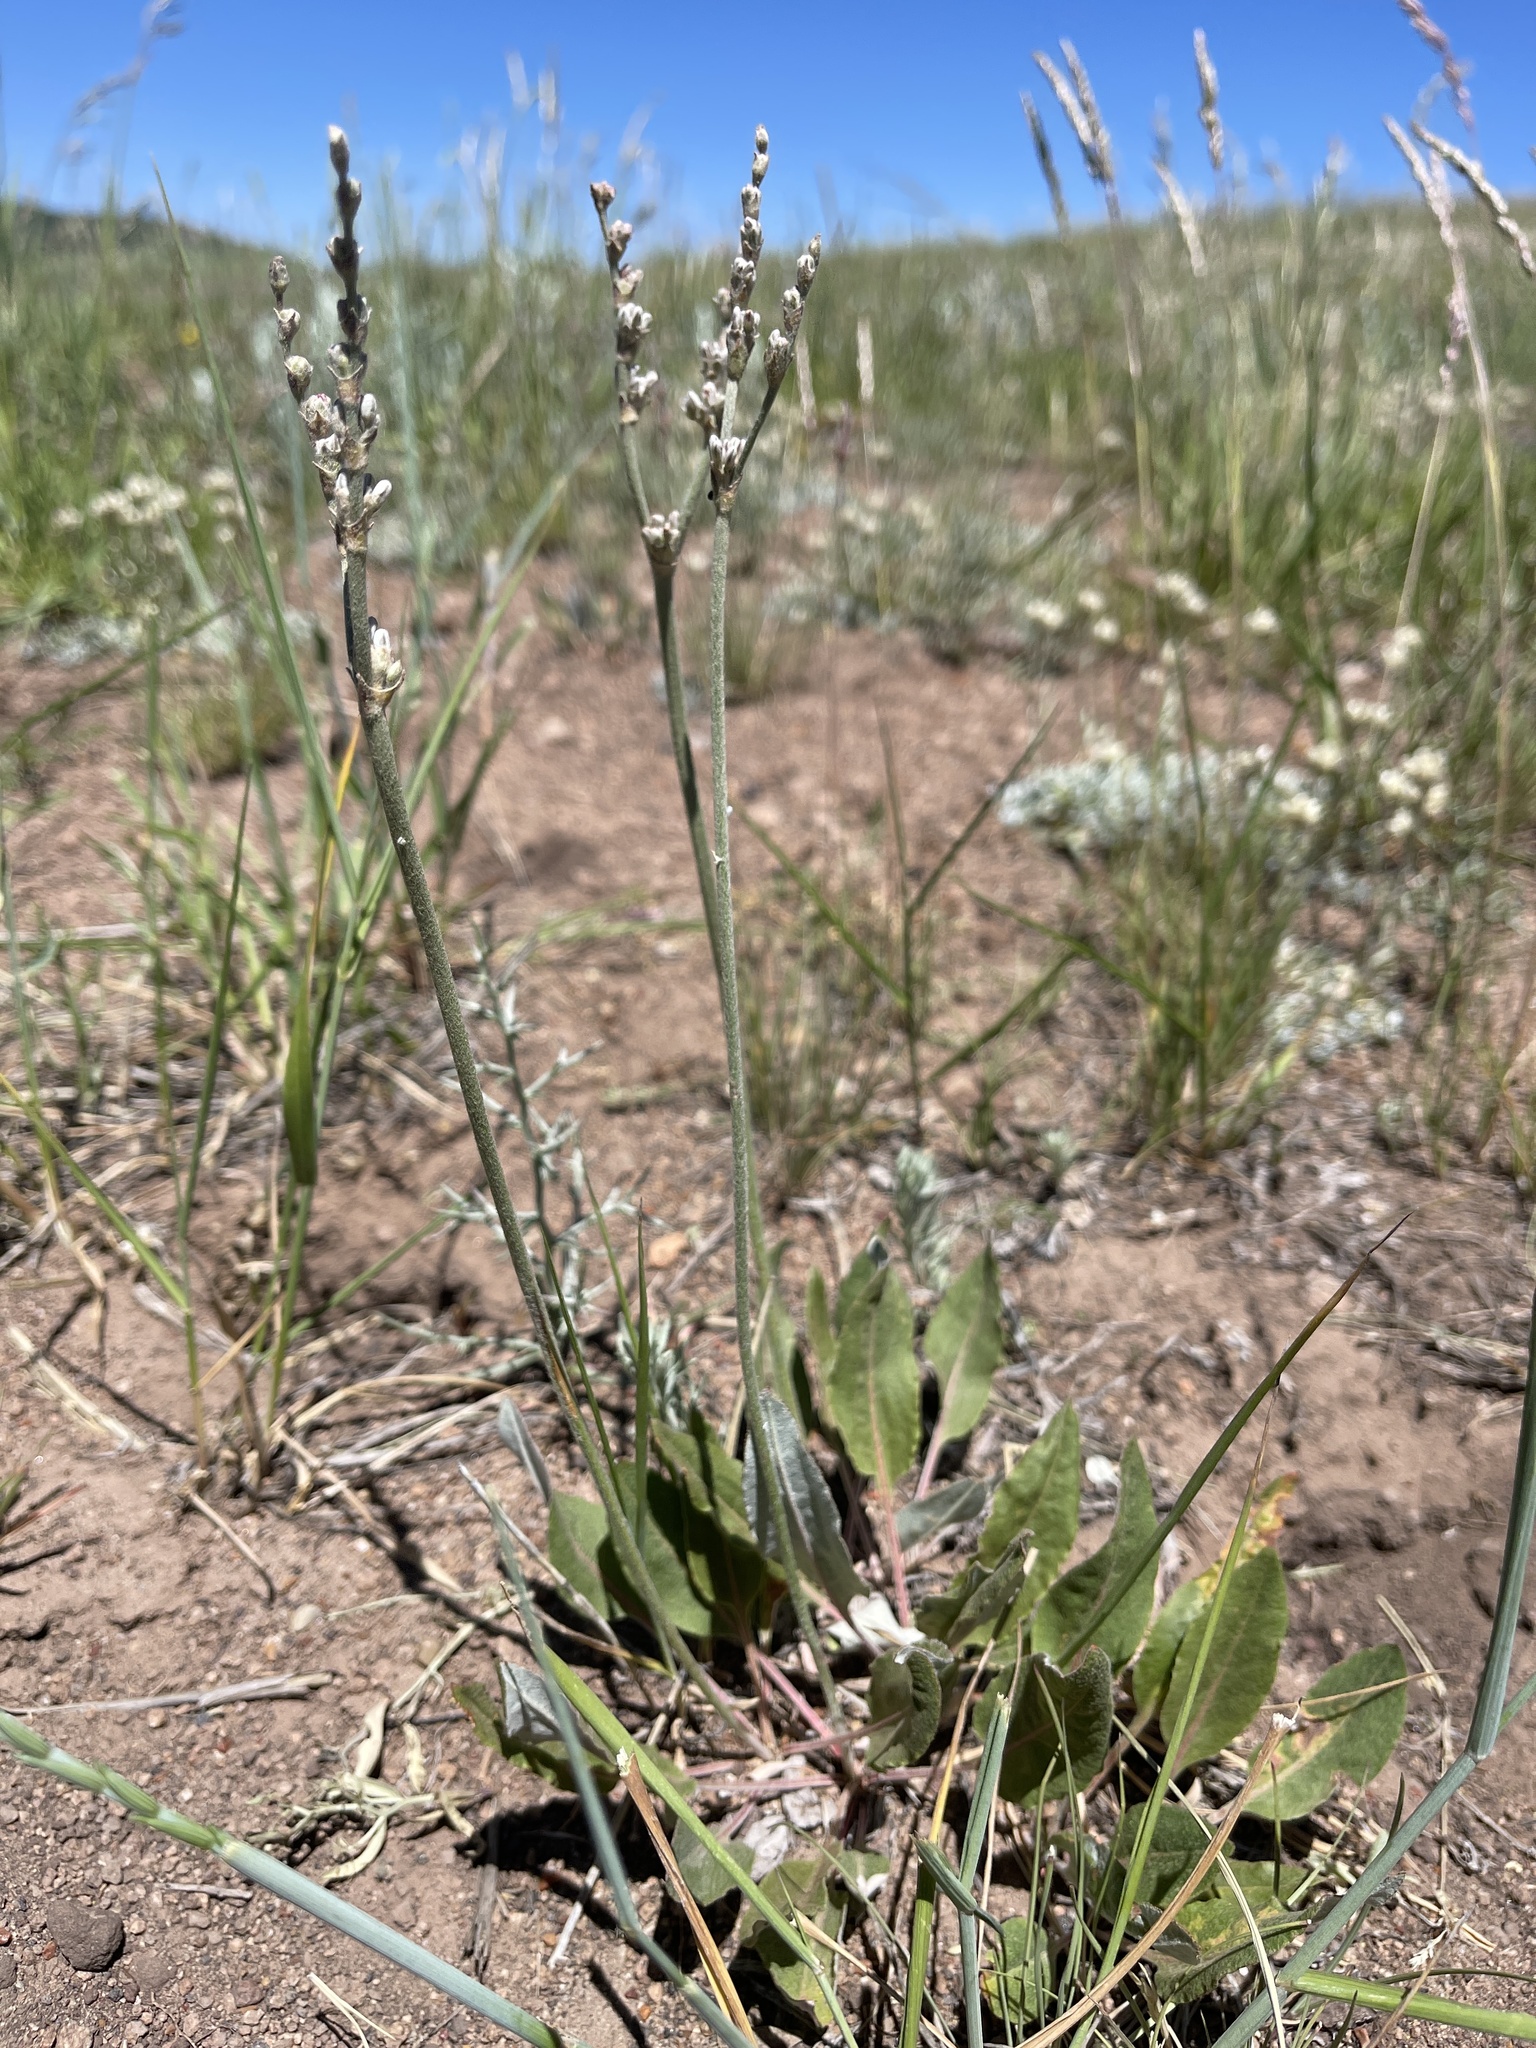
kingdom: Plantae
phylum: Tracheophyta
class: Magnoliopsida
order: Caryophyllales
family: Polygonaceae
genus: Eriogonum
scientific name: Eriogonum racemosum
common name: Redroot wild buckwheat
